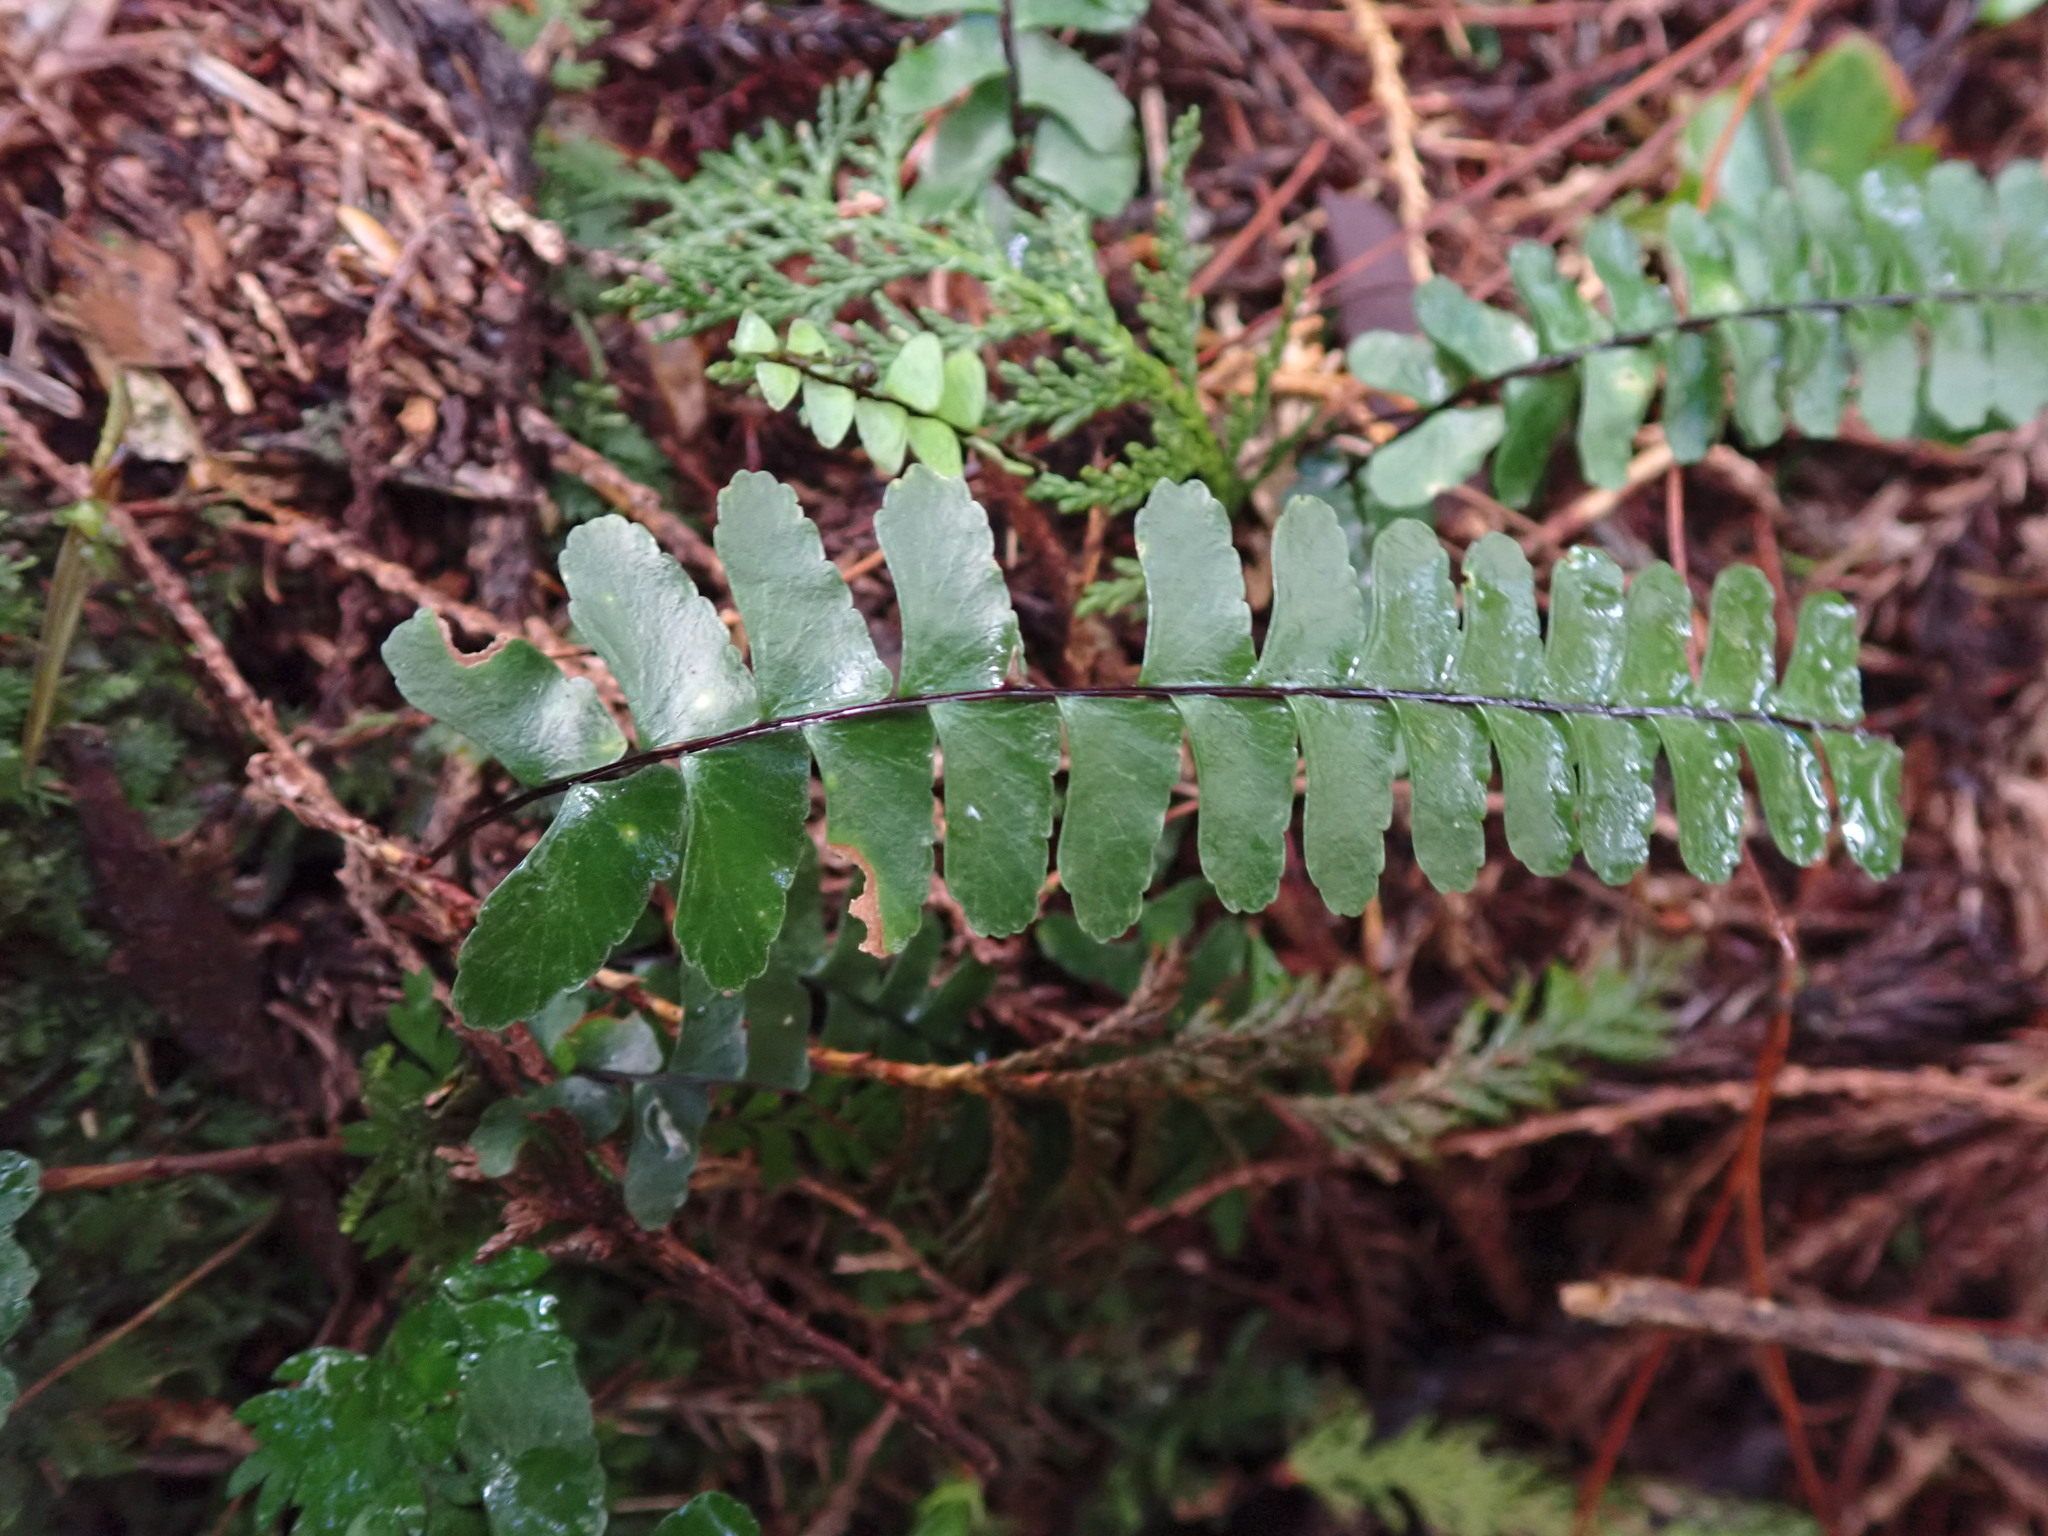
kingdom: Plantae
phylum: Tracheophyta
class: Polypodiopsida
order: Polypodiales
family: Aspleniaceae
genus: Asplenium
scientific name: Asplenium normale
